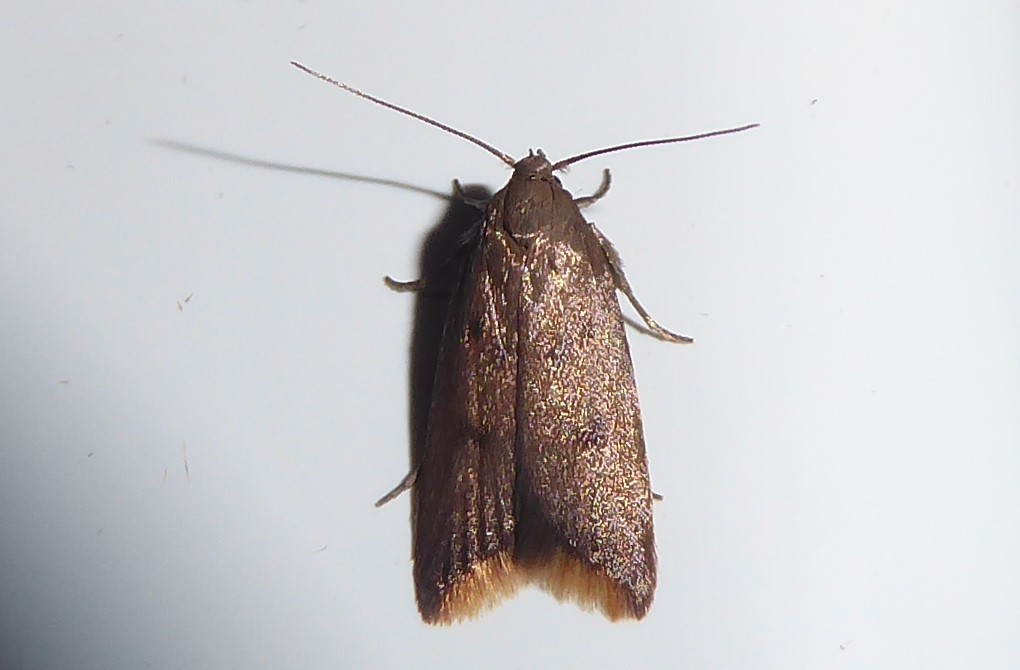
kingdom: Animalia
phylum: Arthropoda
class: Insecta
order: Lepidoptera
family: Oecophoridae
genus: Tachystola
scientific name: Tachystola acroxantha
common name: Ruddy streak
